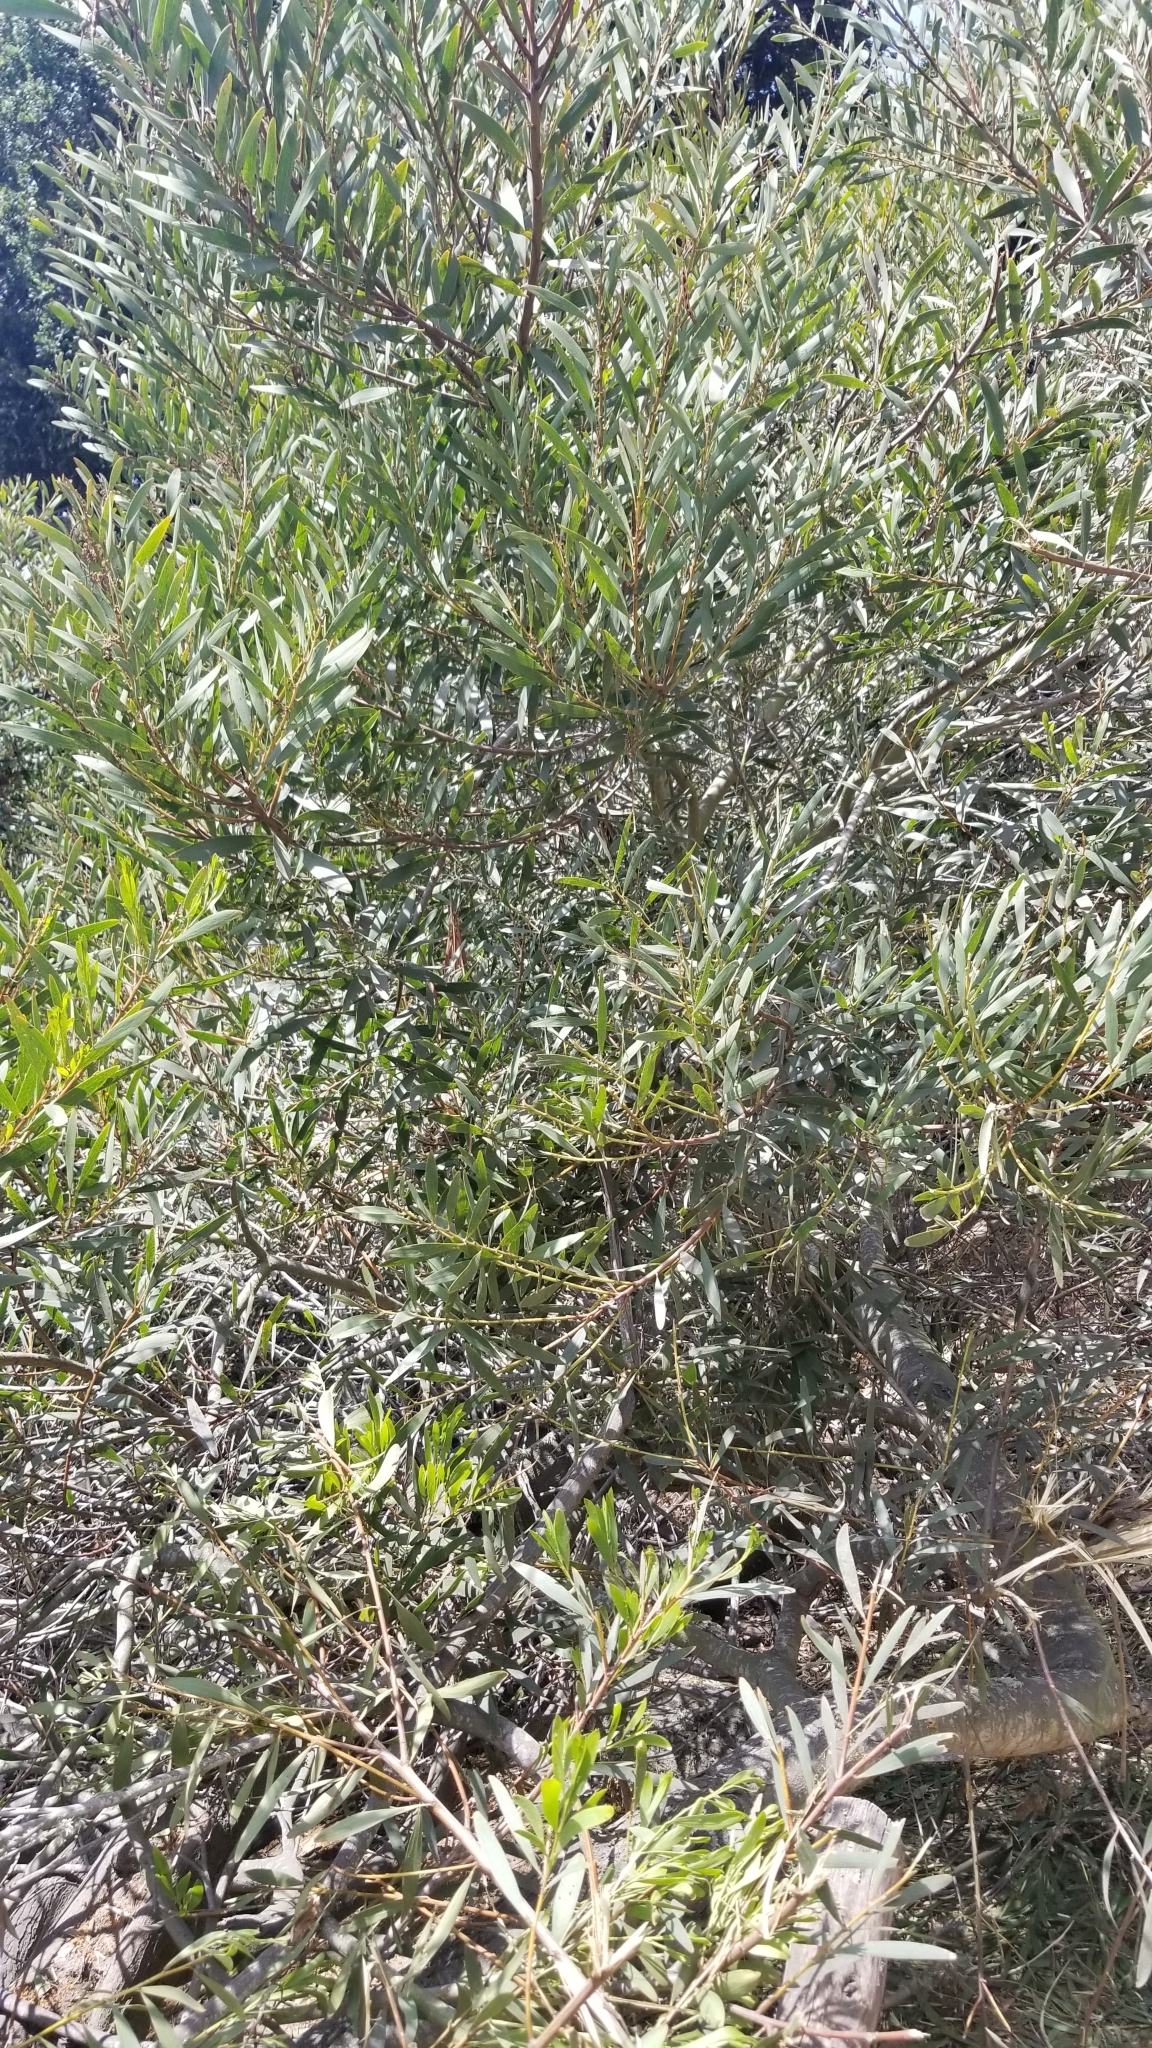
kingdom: Plantae
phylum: Tracheophyta
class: Magnoliopsida
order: Fabales
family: Fabaceae
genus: Acacia
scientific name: Acacia longifolia
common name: Sydney golden wattle
